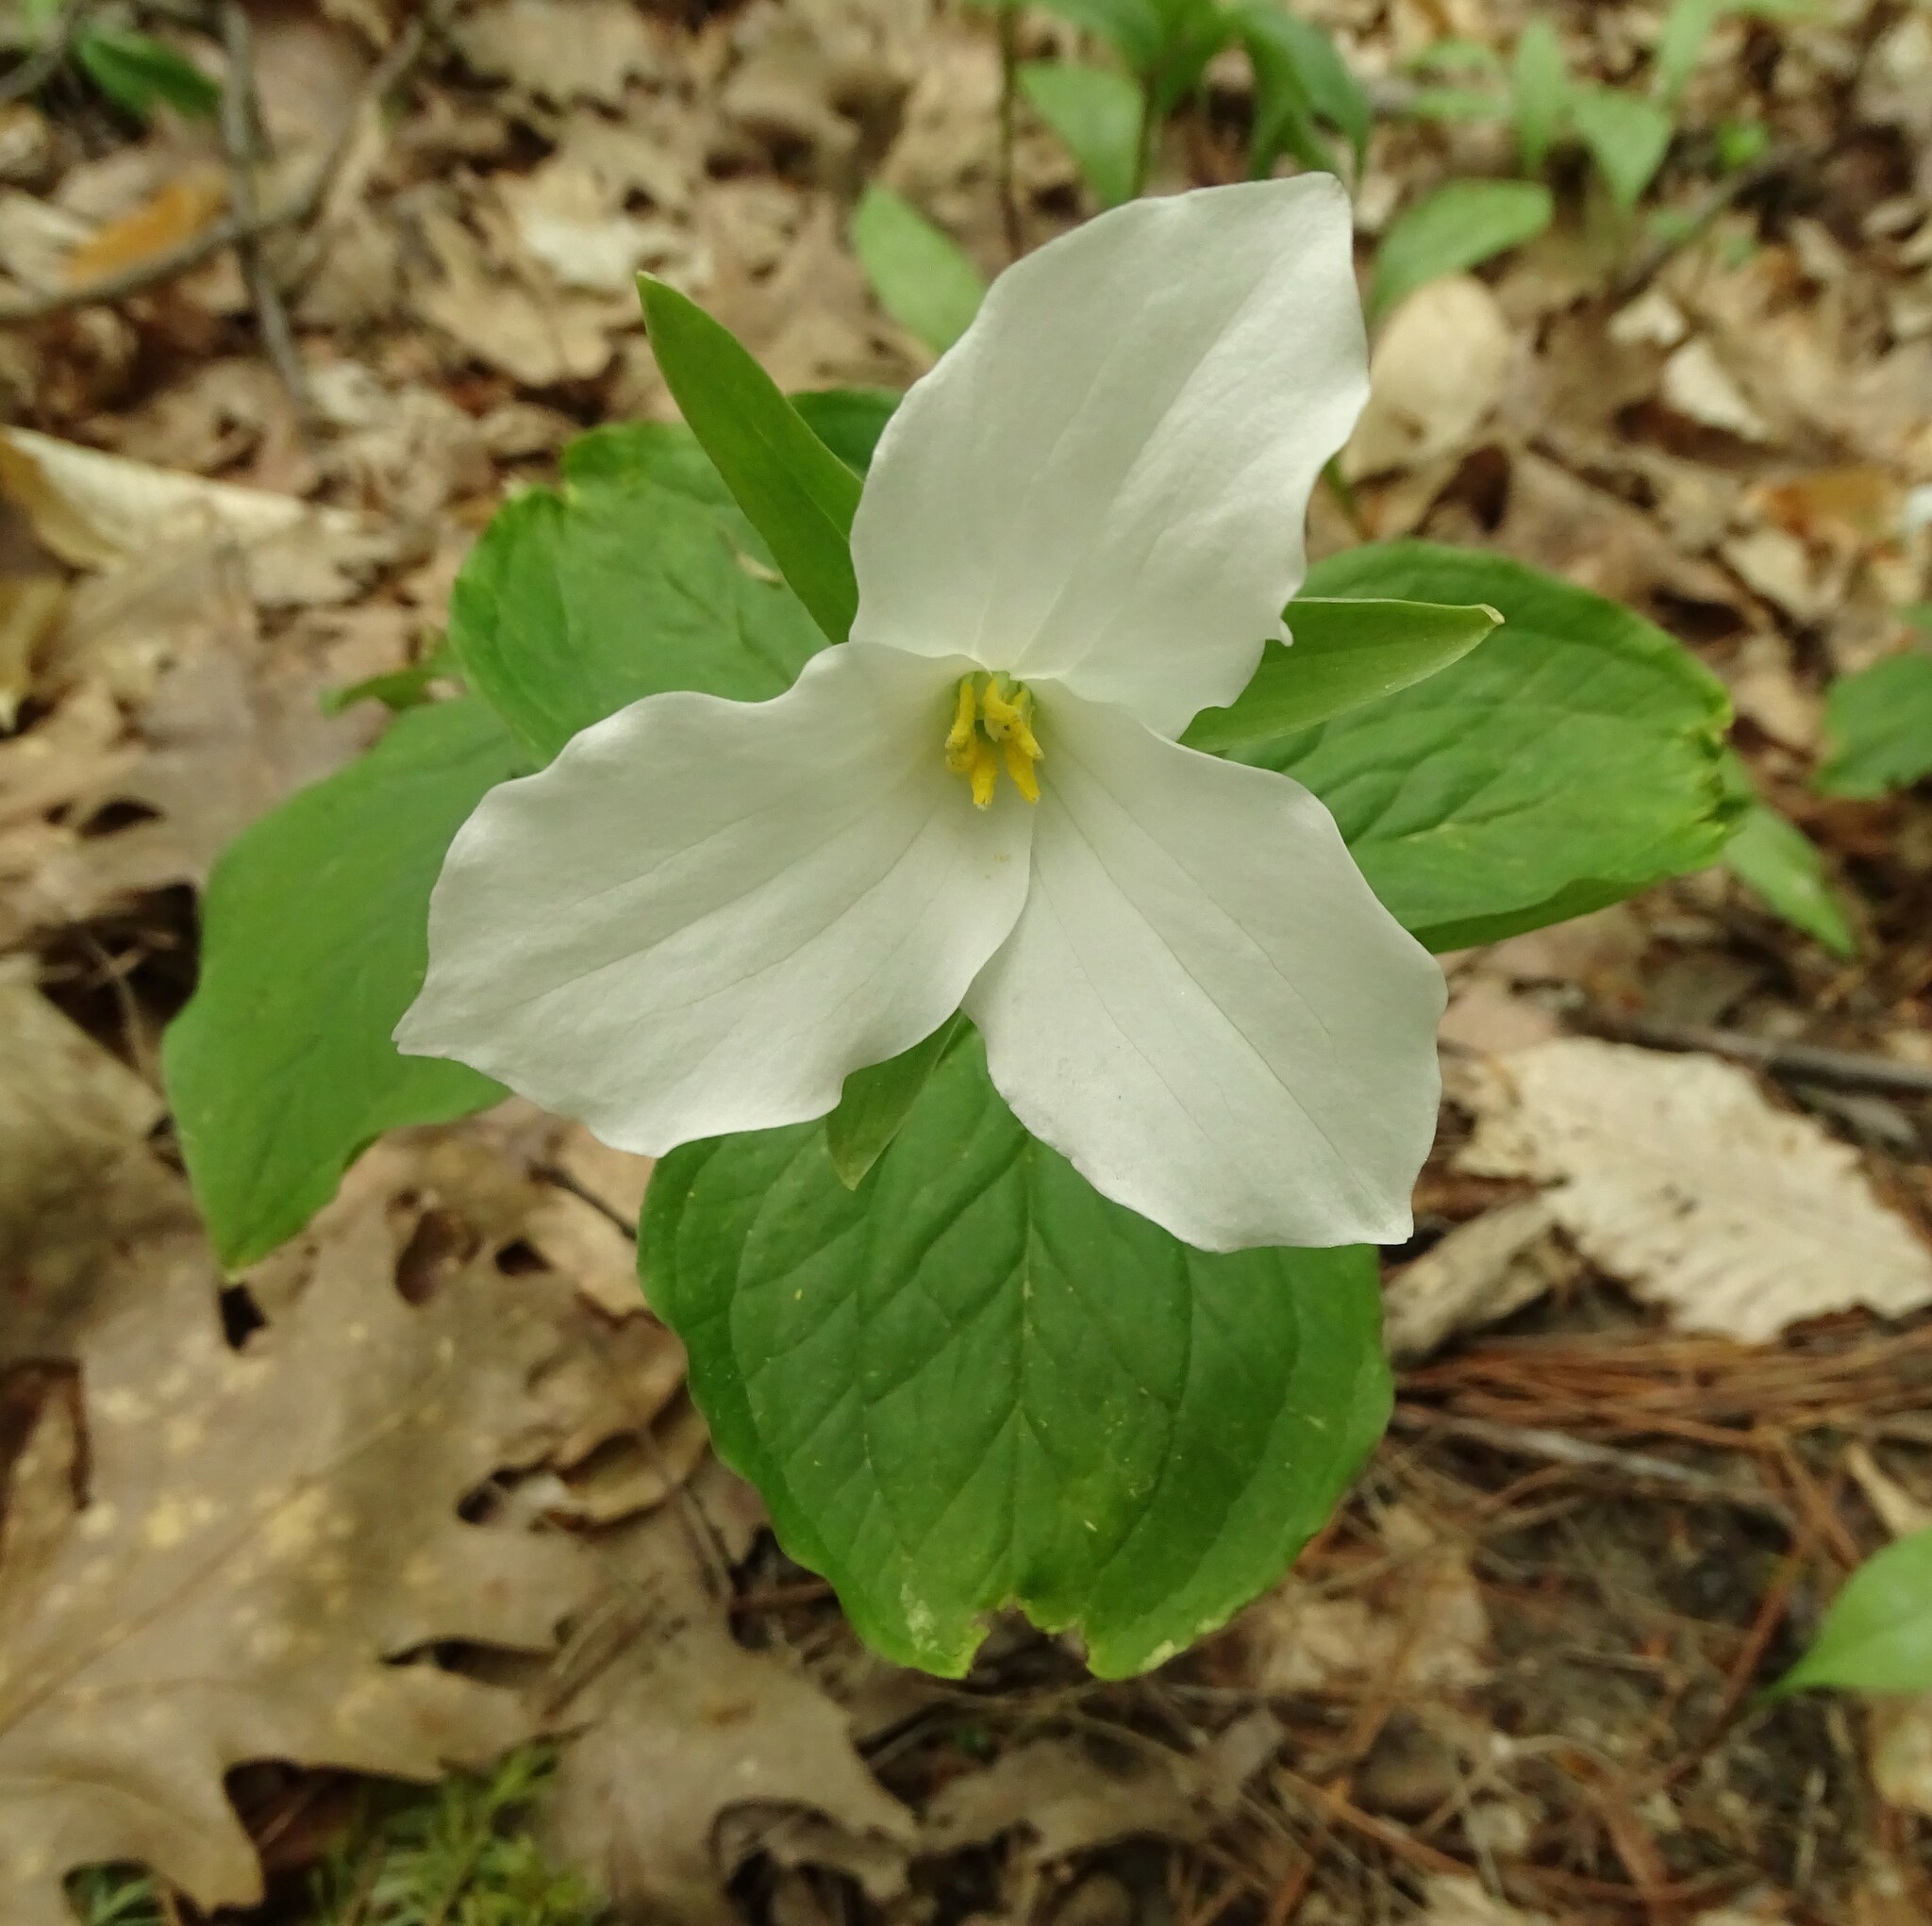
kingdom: Plantae
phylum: Tracheophyta
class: Liliopsida
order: Liliales
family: Melanthiaceae
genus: Trillium
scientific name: Trillium grandiflorum
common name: Great white trillium
